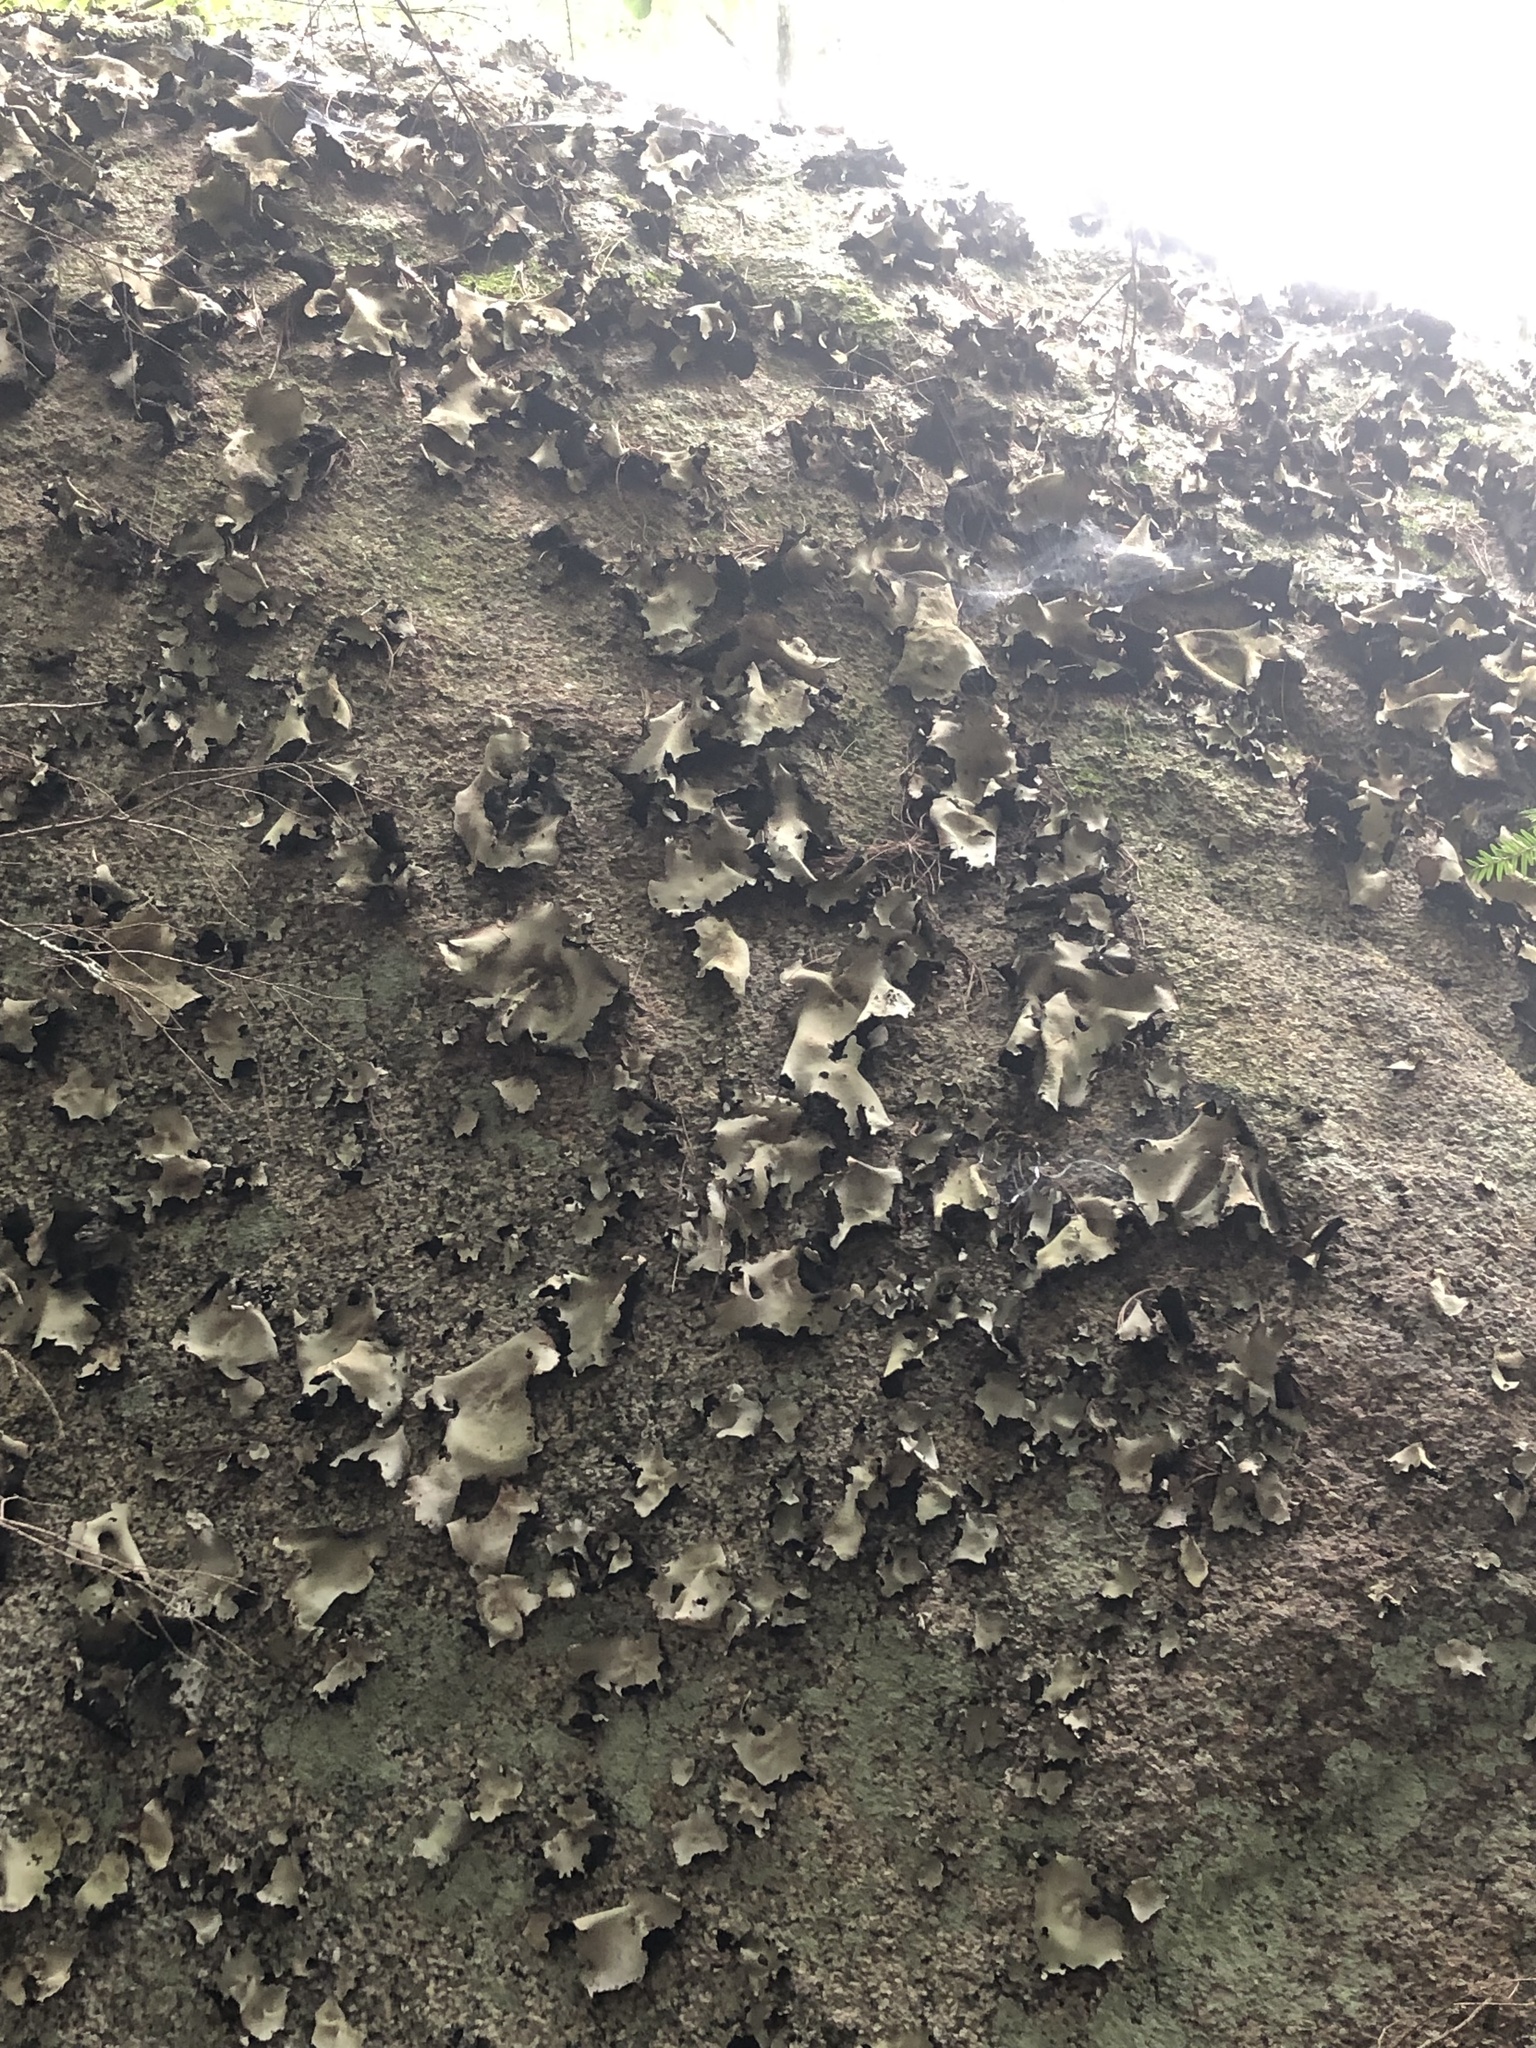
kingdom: Fungi
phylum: Ascomycota
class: Lecanoromycetes
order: Umbilicariales
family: Umbilicariaceae
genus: Umbilicaria
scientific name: Umbilicaria mammulata
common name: Smooth rock tripe
